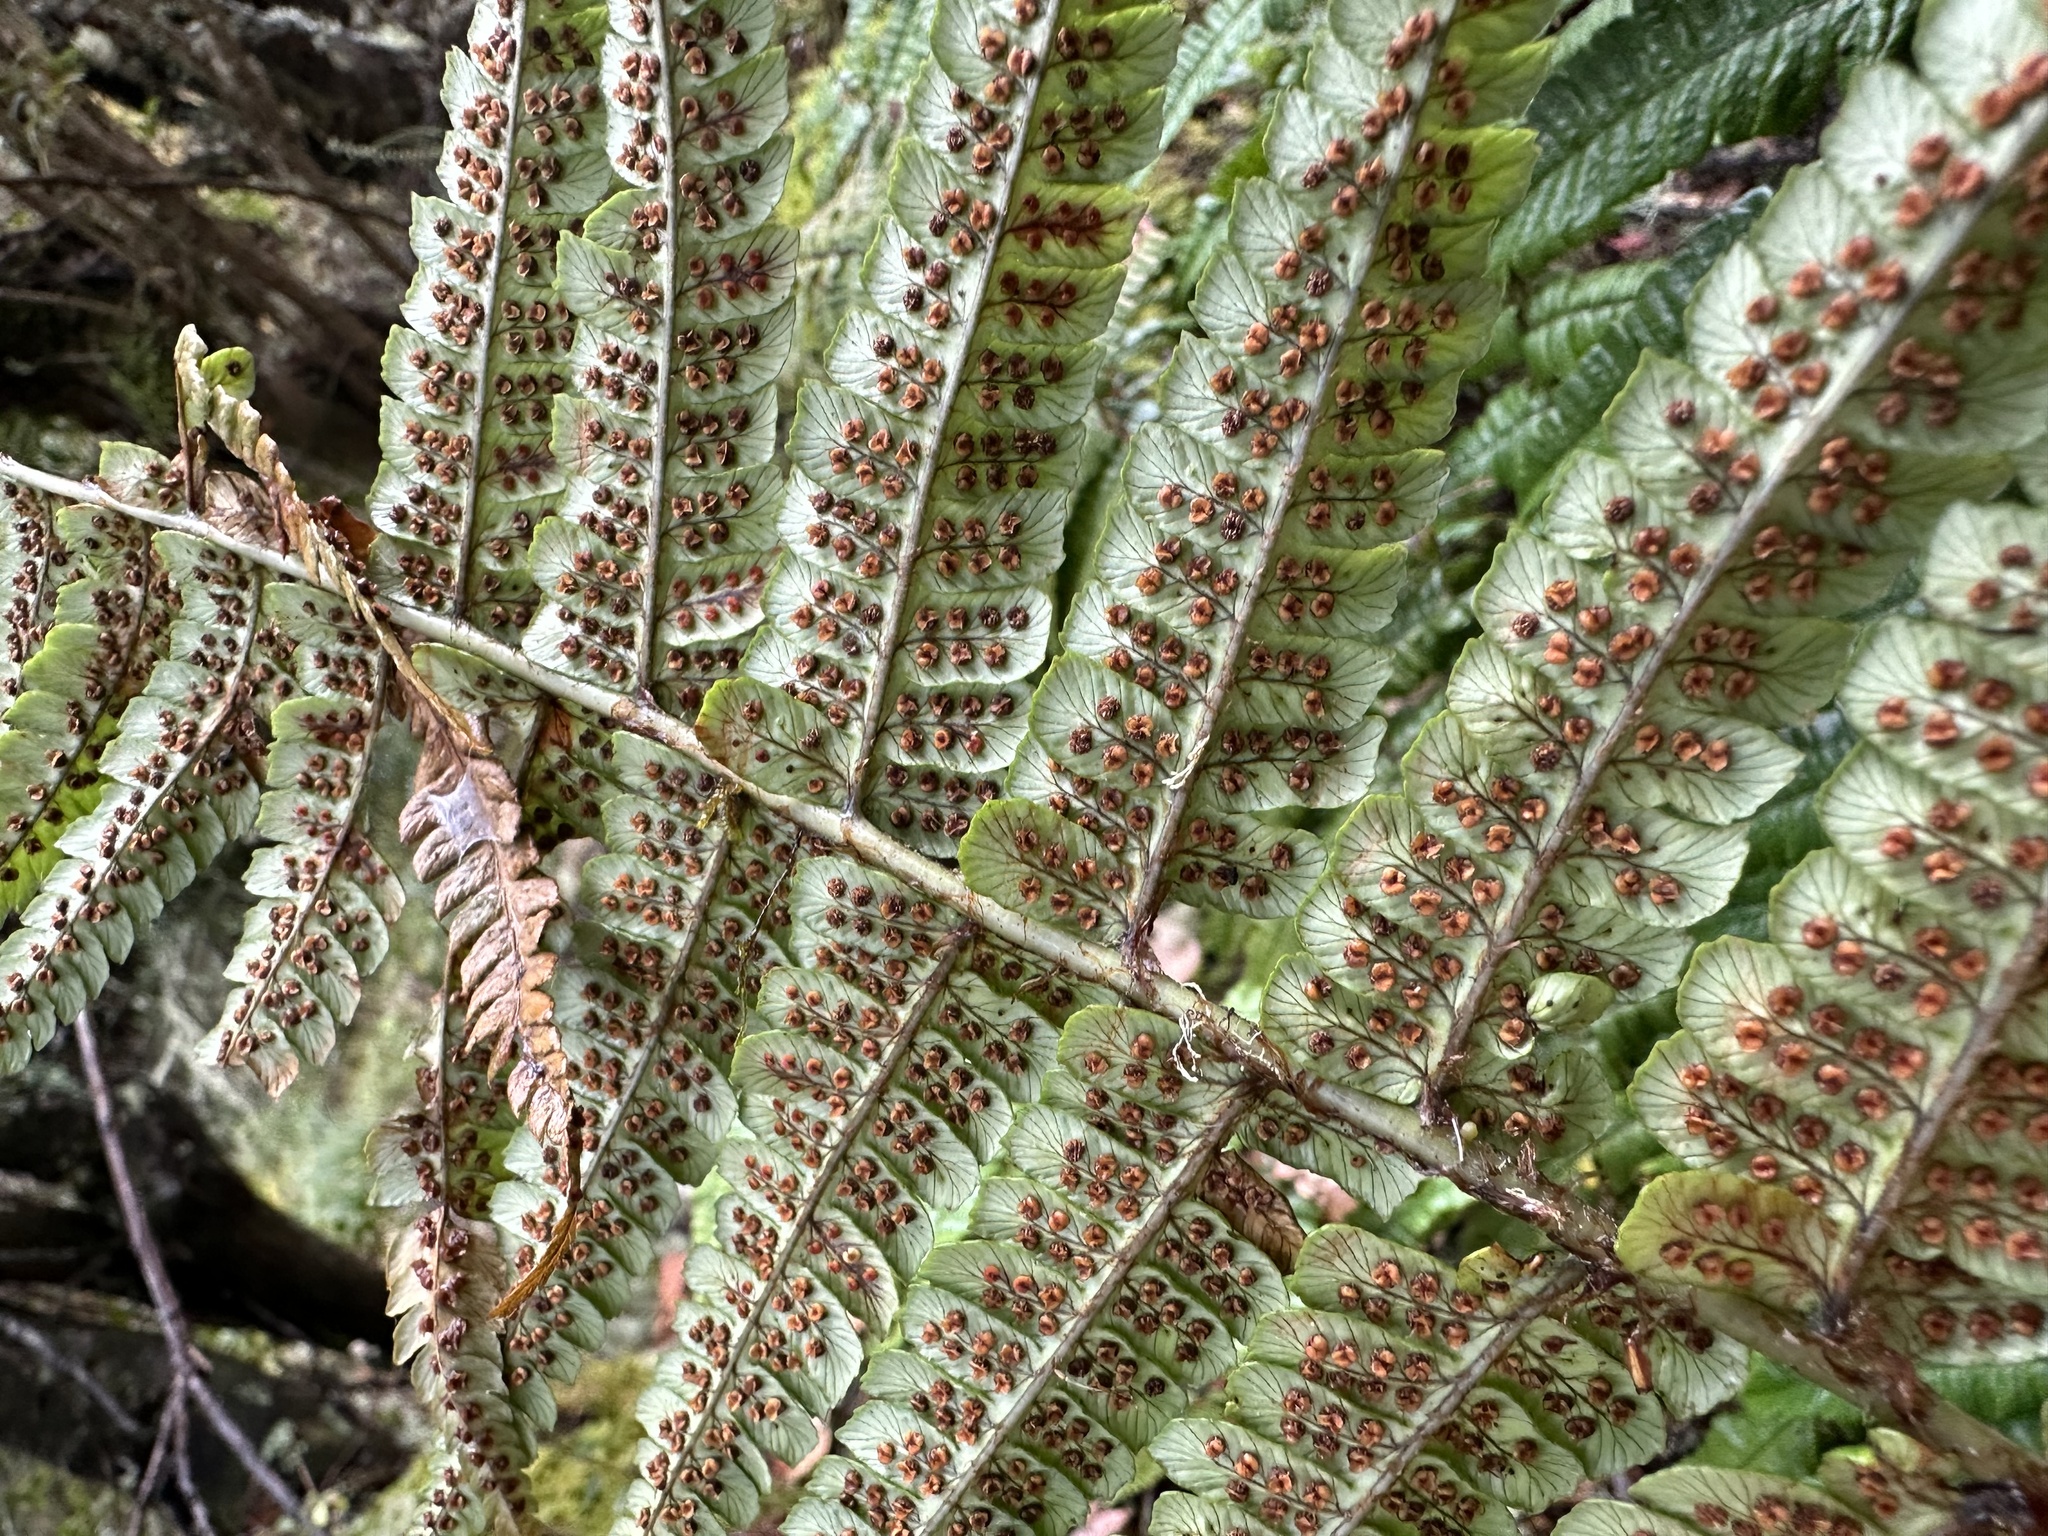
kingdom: Plantae
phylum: Tracheophyta
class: Polypodiopsida
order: Polypodiales
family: Dryopteridaceae
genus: Dryopteris
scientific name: Dryopteris wallichiana
